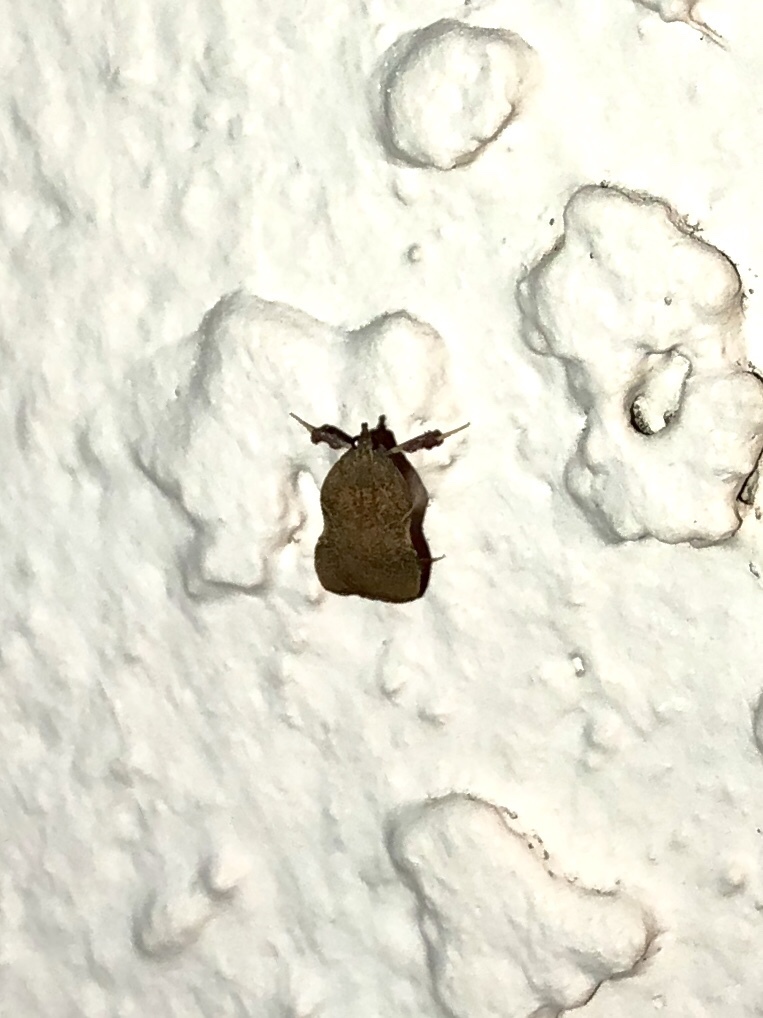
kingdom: Animalia
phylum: Arthropoda
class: Insecta
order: Lepidoptera
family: Pyralidae
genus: Galasa
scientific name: Galasa nigripunctalis
